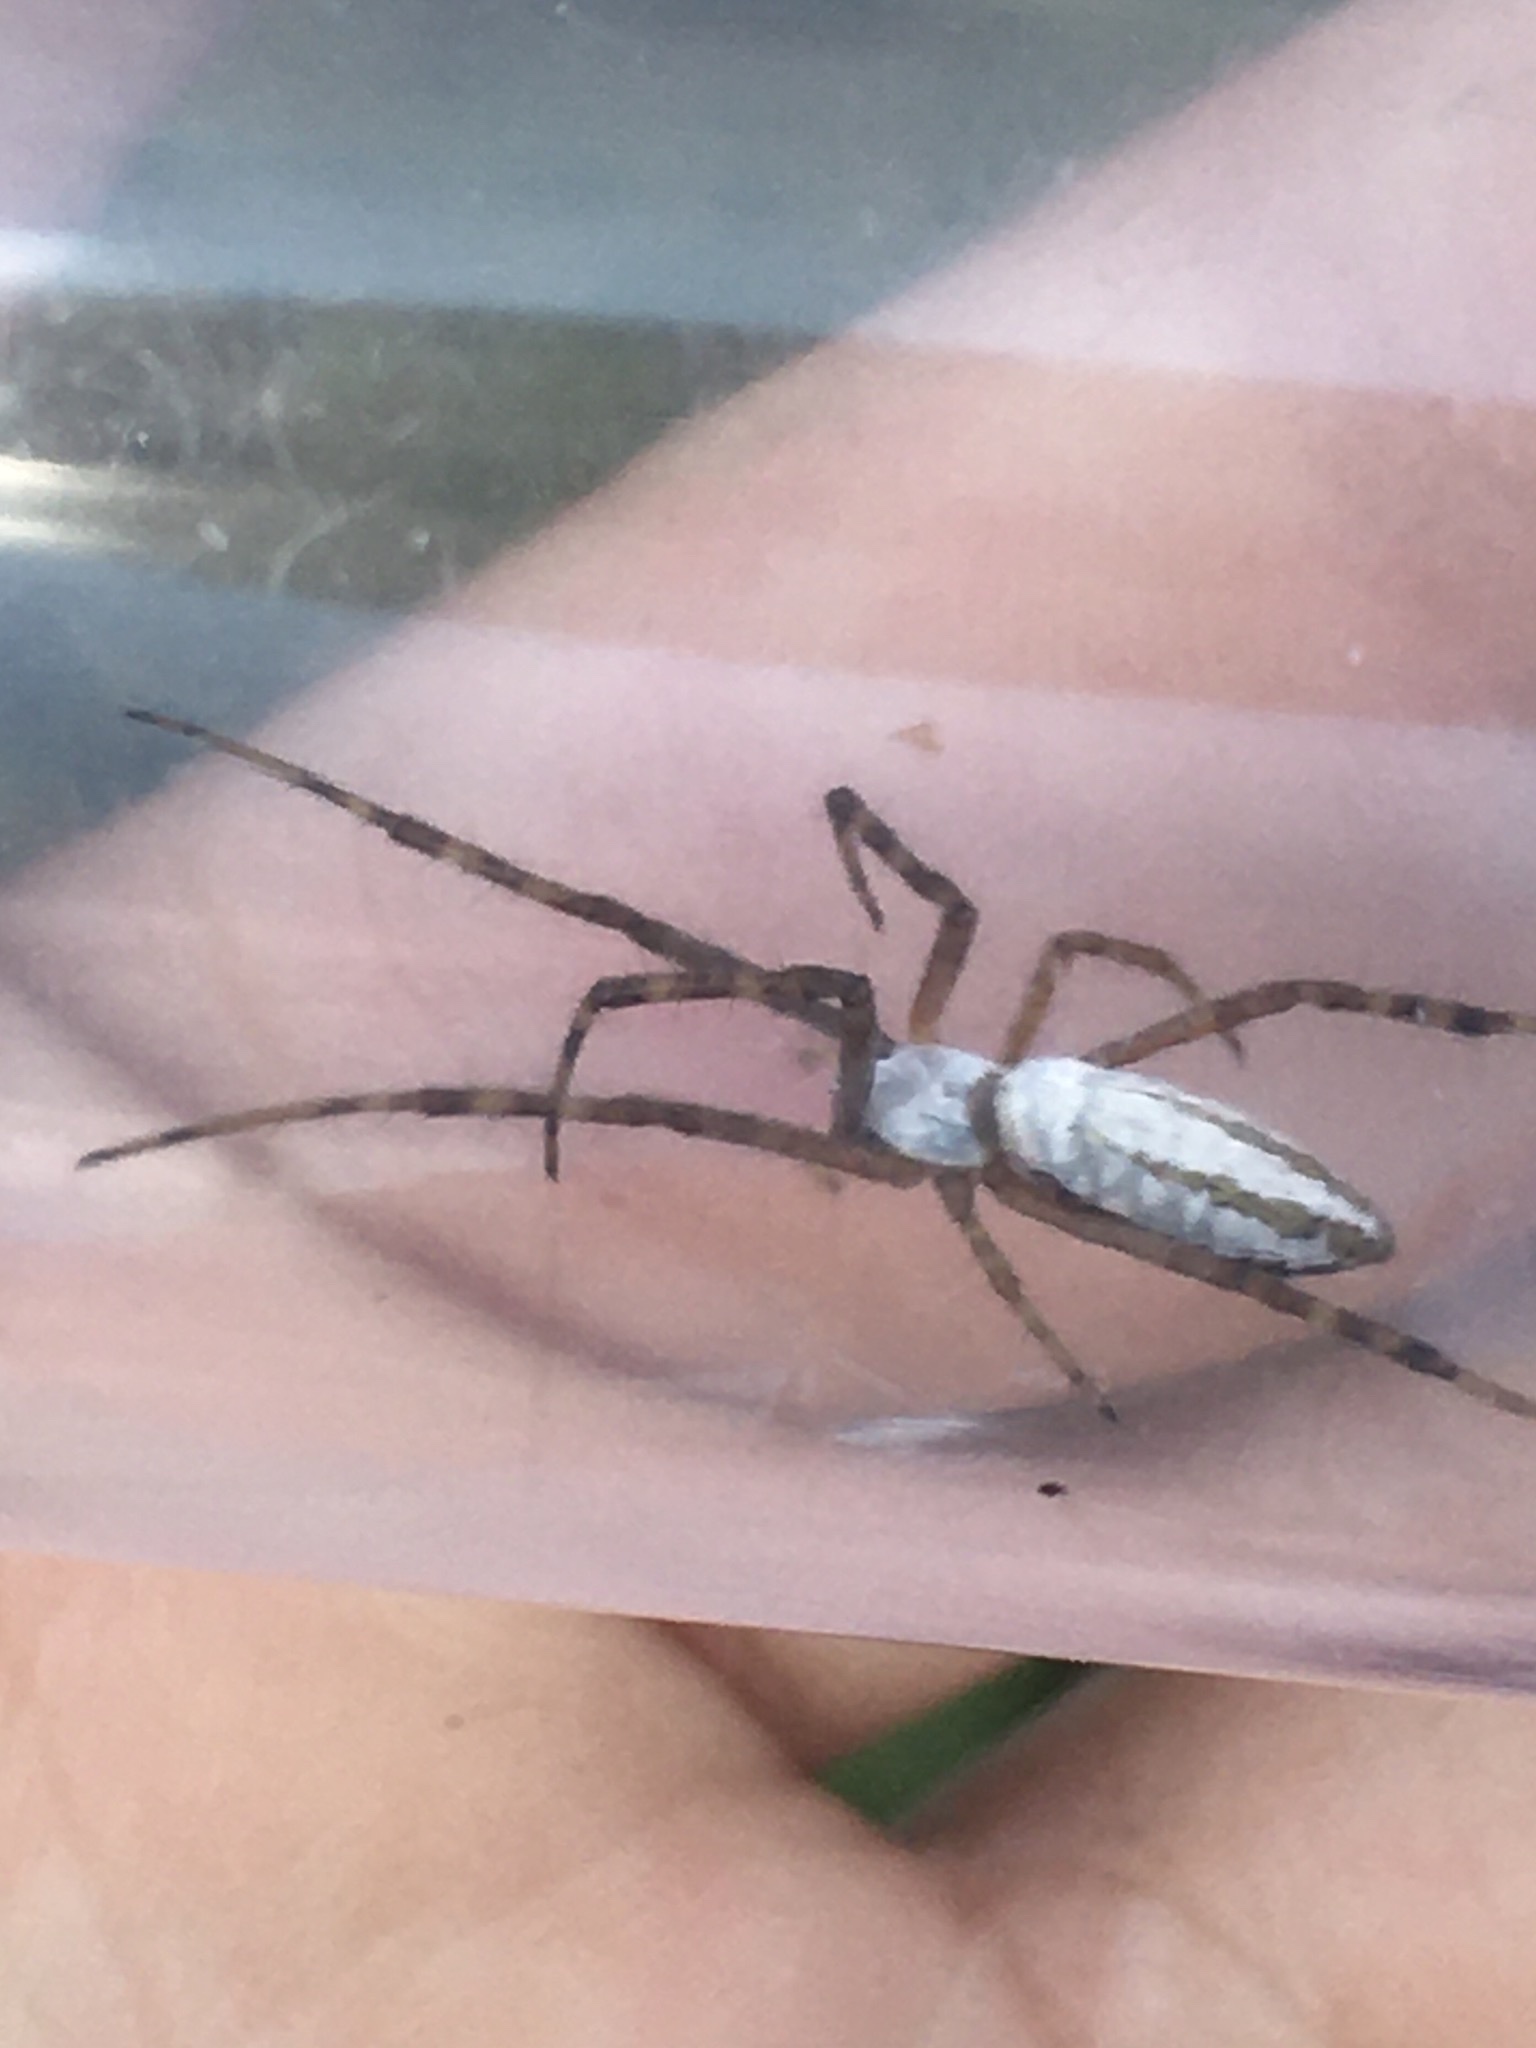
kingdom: Animalia
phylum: Arthropoda
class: Arachnida
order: Araneae
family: Araneidae
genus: Argiope
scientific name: Argiope trifasciata
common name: Banded garden spider
